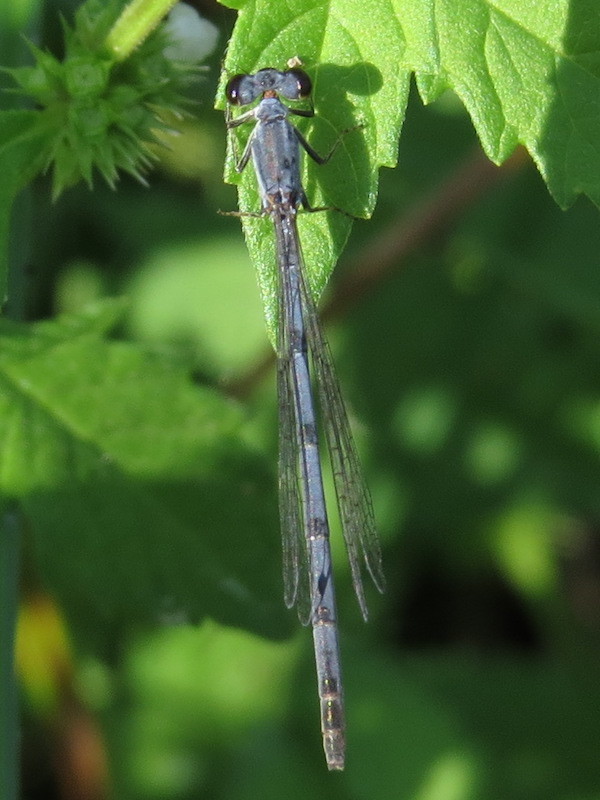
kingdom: Animalia
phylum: Arthropoda
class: Insecta
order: Odonata
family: Coenagrionidae
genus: Ischnura
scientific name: Ischnura posita
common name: Fragile forktail
